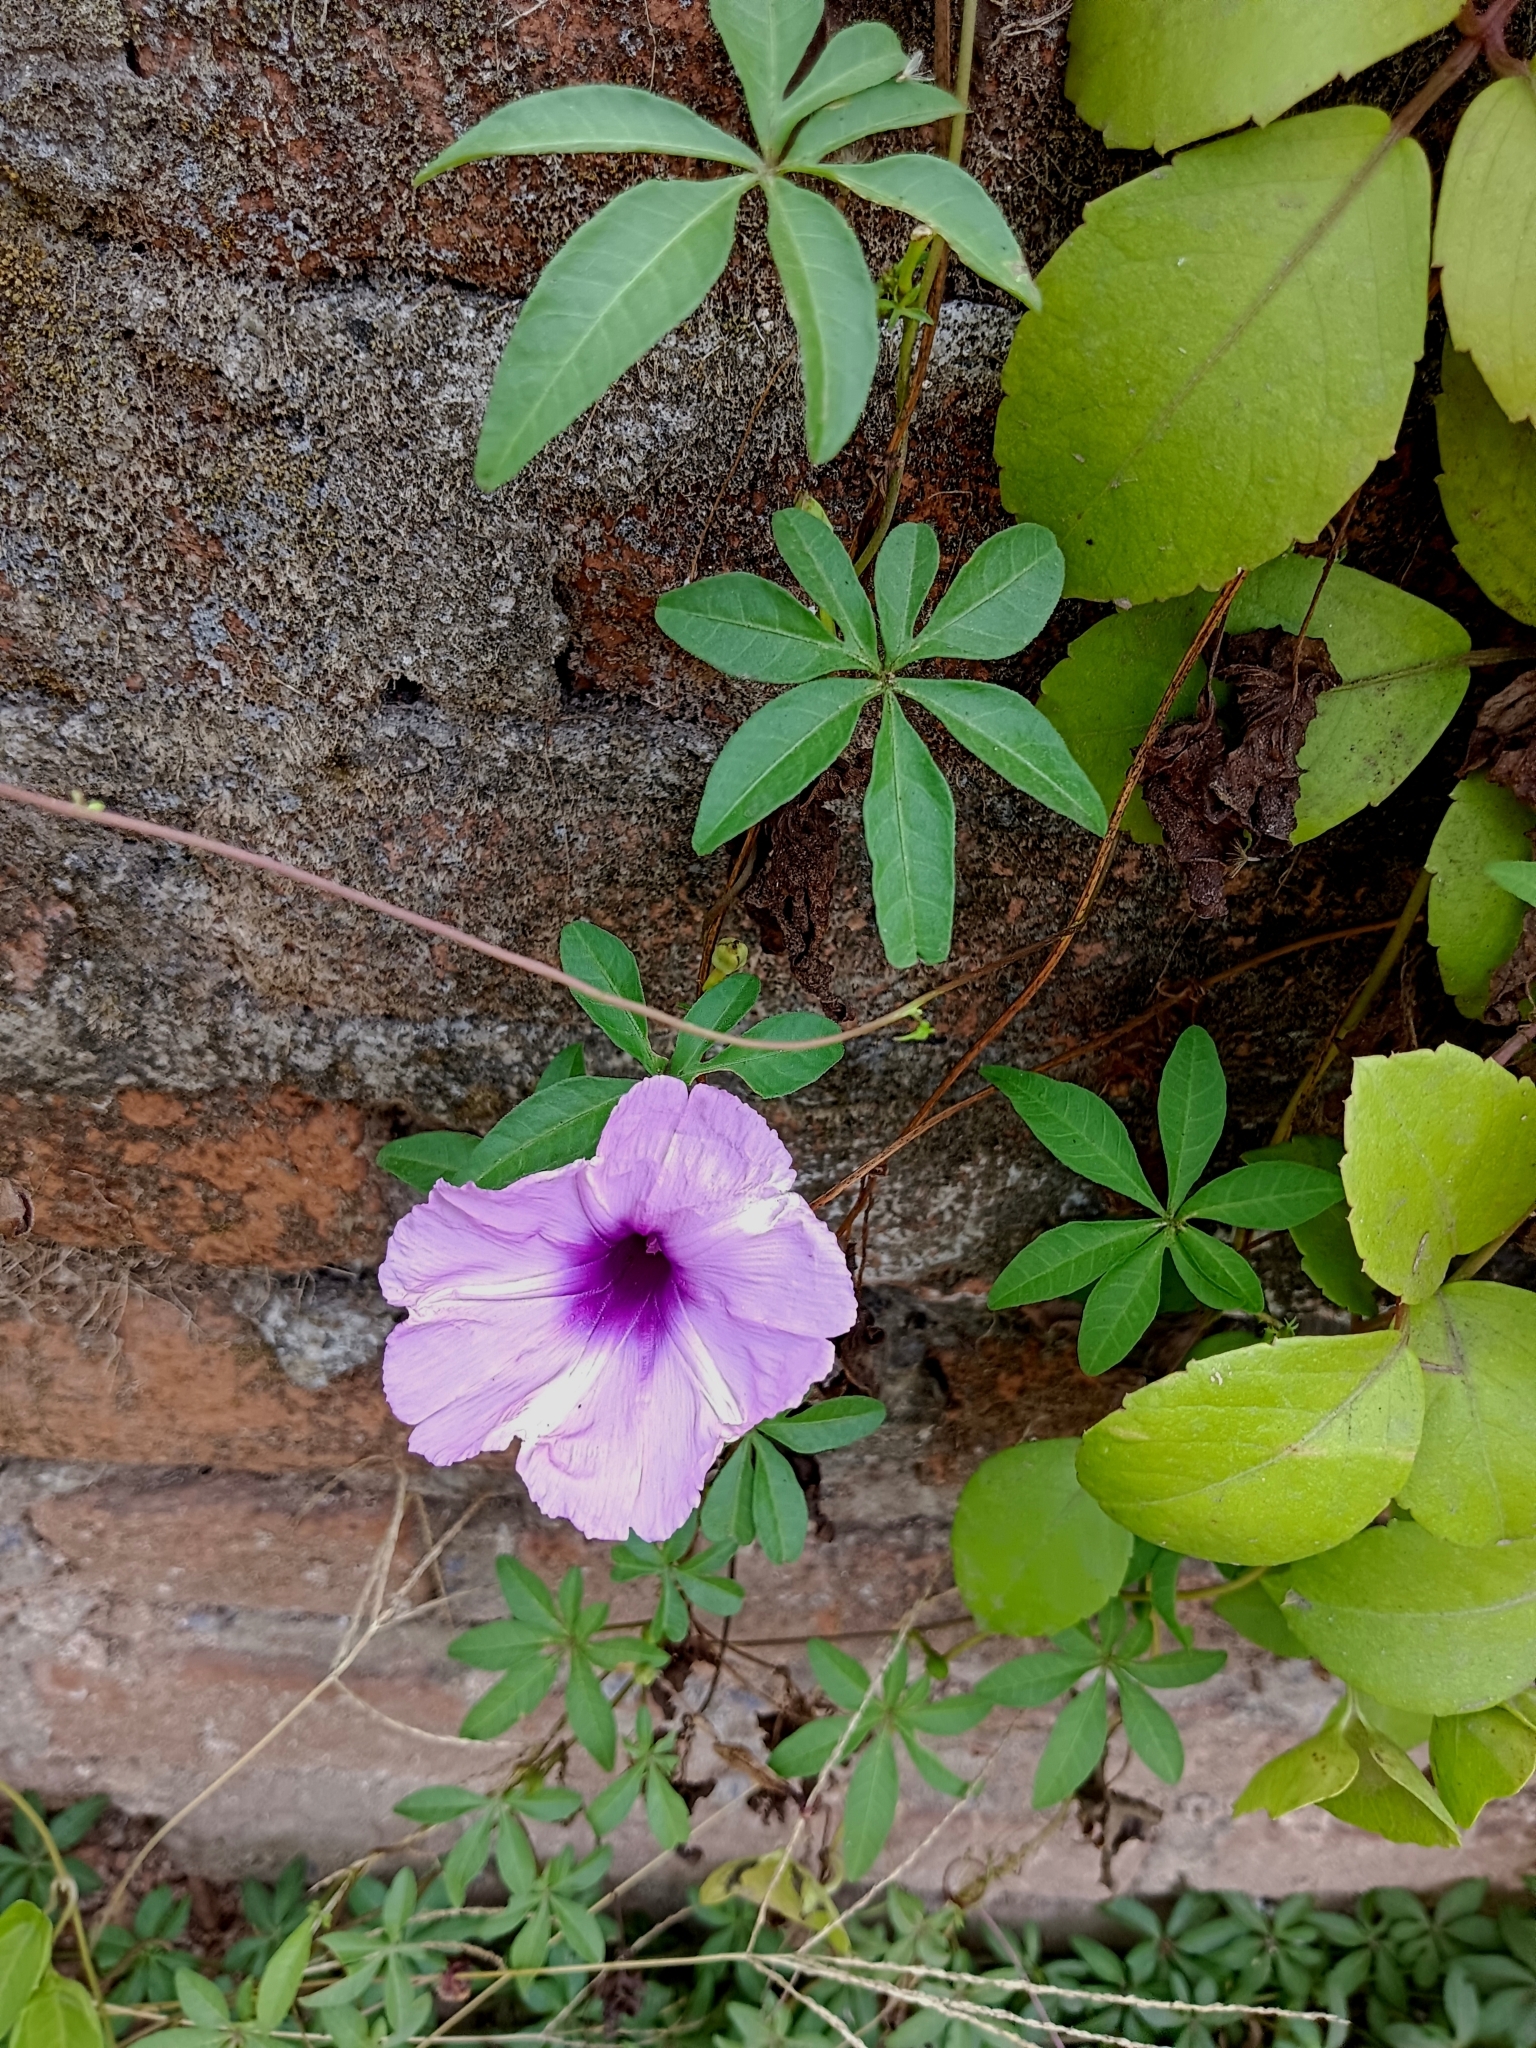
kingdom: Plantae
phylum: Tracheophyta
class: Magnoliopsida
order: Solanales
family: Convolvulaceae
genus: Ipomoea
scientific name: Ipomoea cairica
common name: Mile a minute vine
